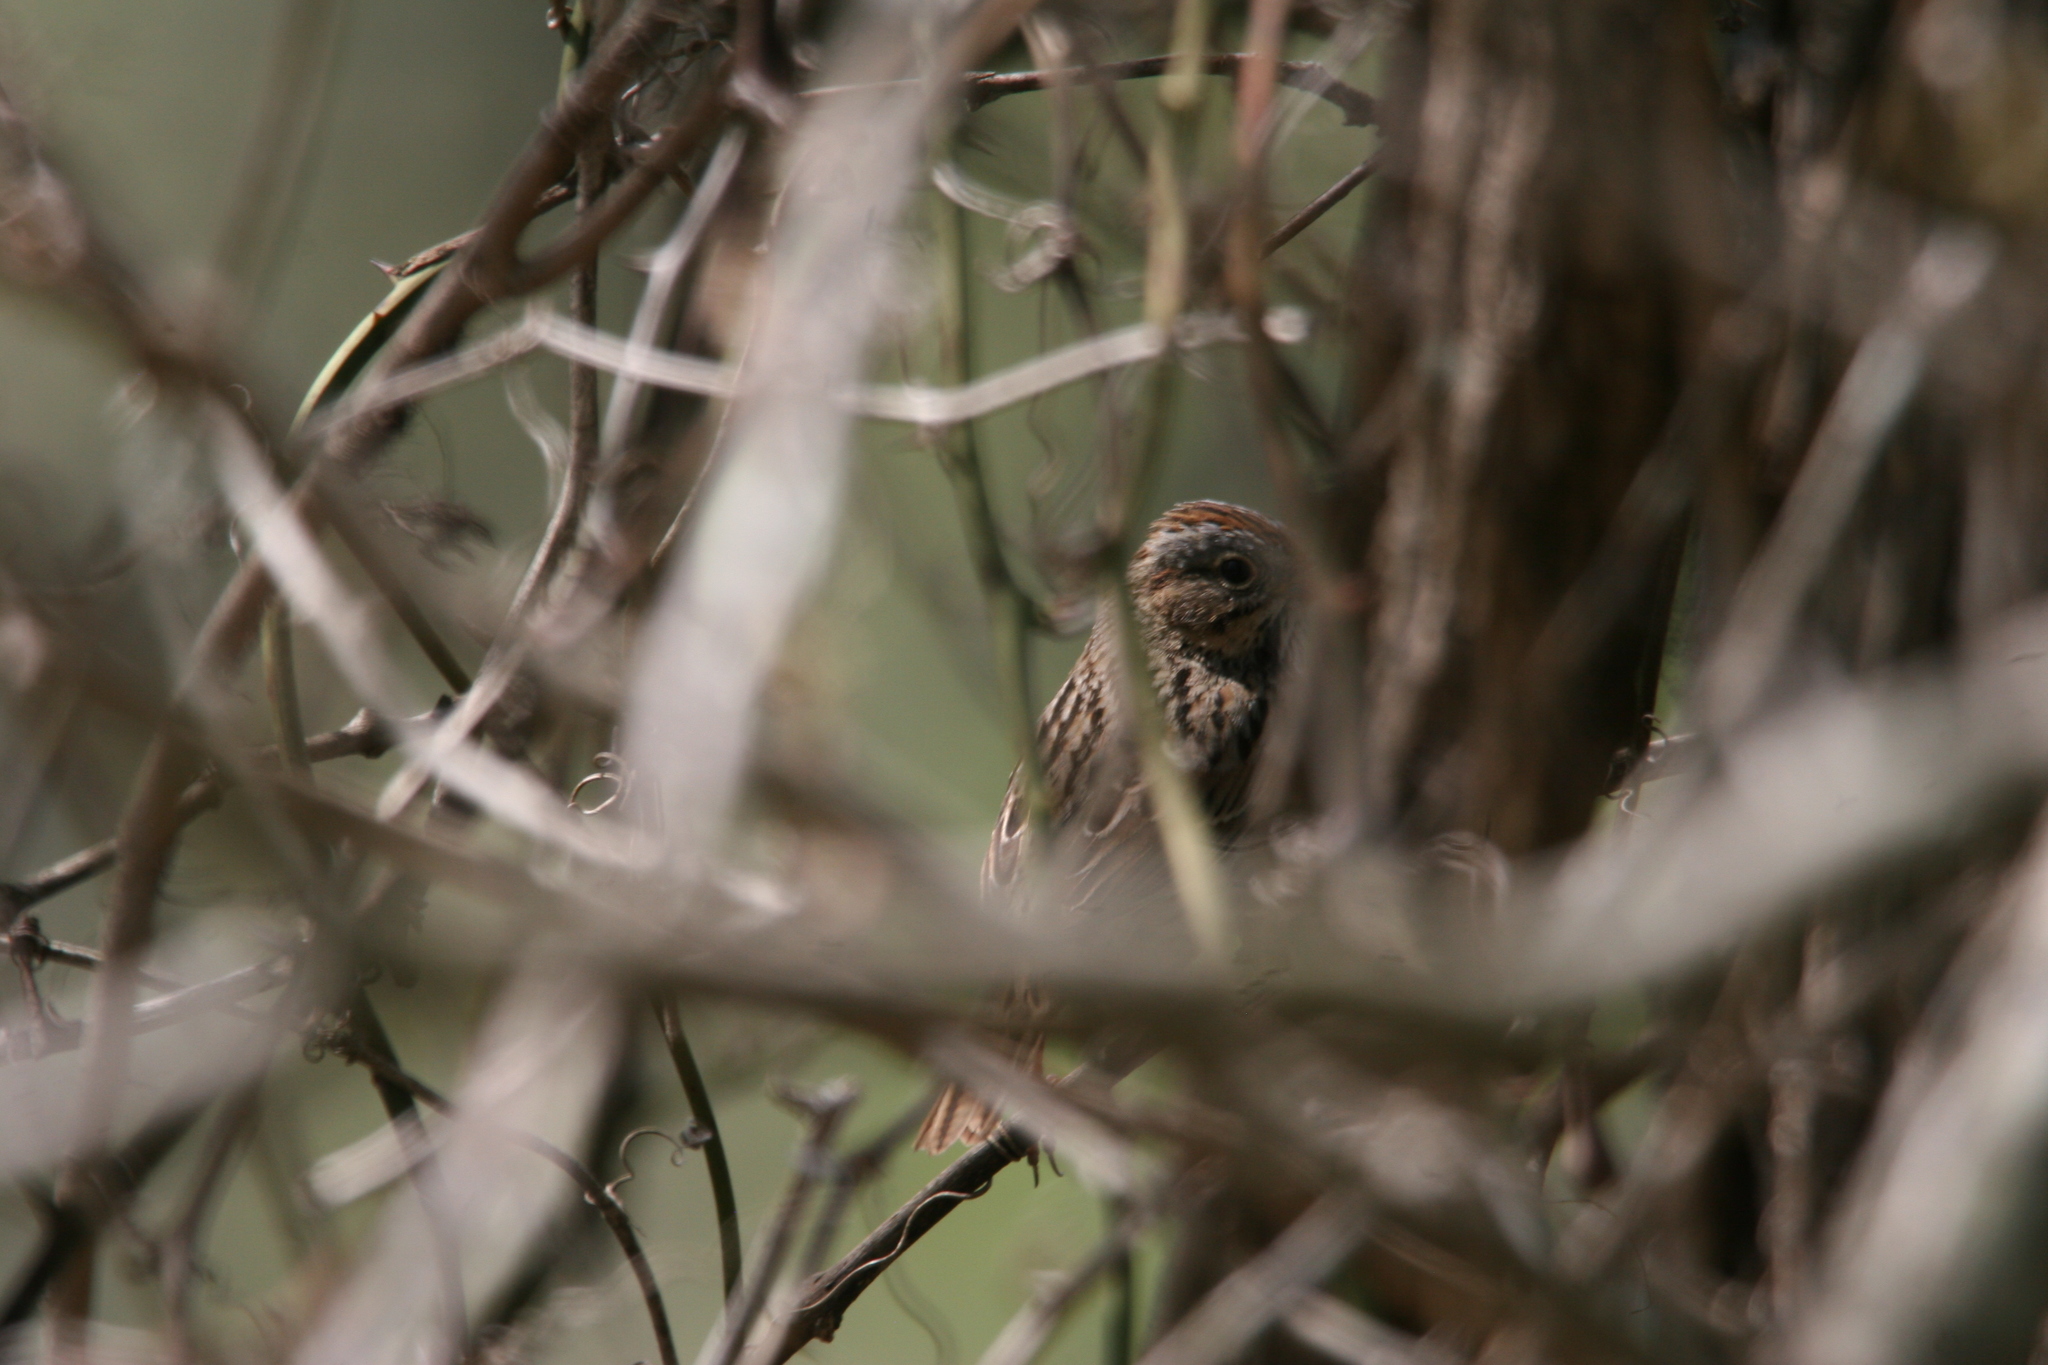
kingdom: Animalia
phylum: Chordata
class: Aves
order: Passeriformes
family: Passerellidae
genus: Melospiza
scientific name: Melospiza lincolnii
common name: Lincoln's sparrow
